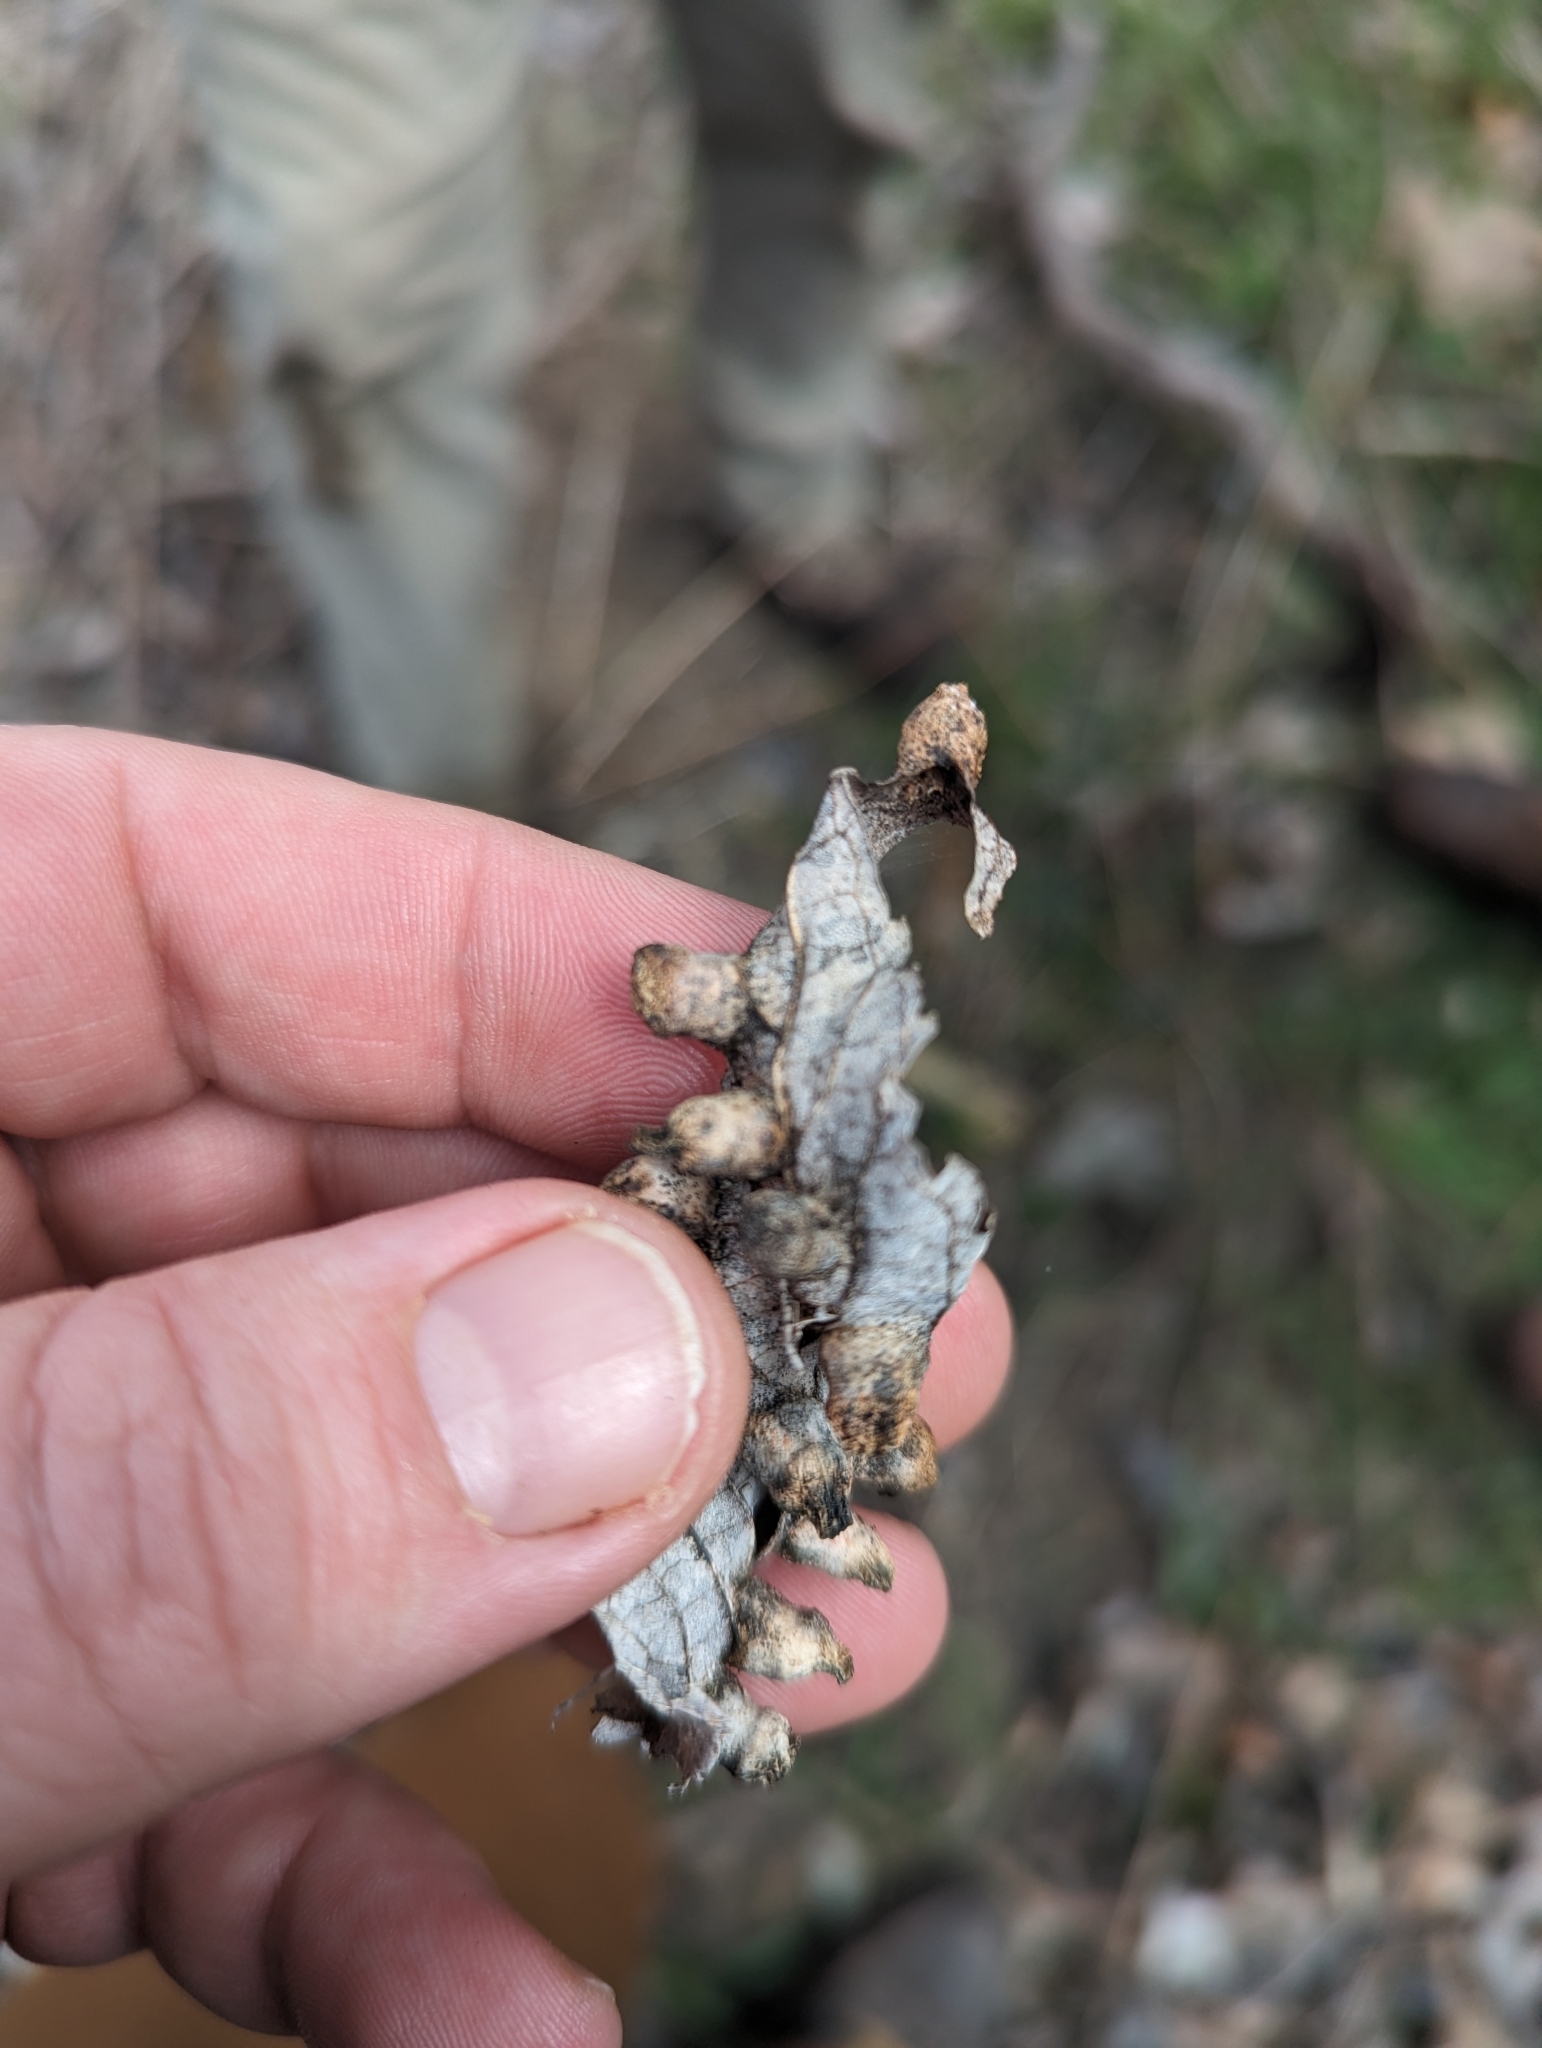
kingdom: Animalia
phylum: Arthropoda
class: Insecta
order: Hemiptera
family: Aphalaridae
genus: Pachypsylla
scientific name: Pachypsylla celtidismamma
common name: Hackberry nipplegall psyllid
